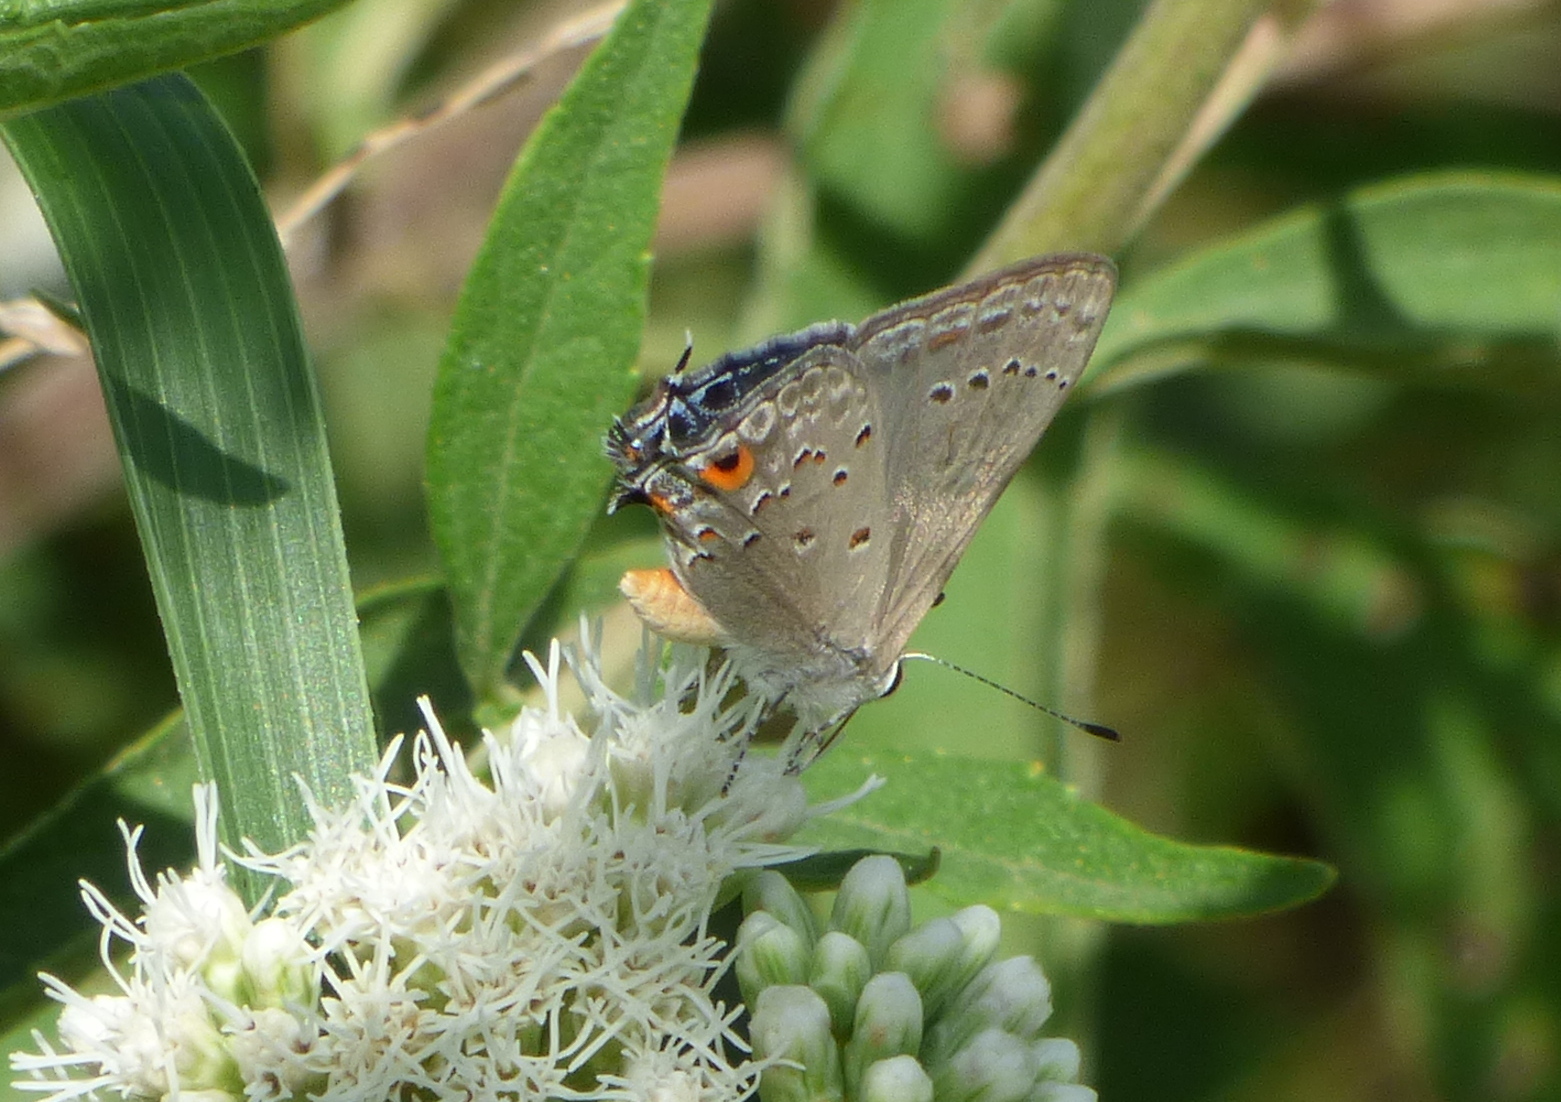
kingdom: Animalia
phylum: Arthropoda
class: Insecta
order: Lepidoptera
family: Lycaenidae
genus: Strymon
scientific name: Strymon eurytulus
